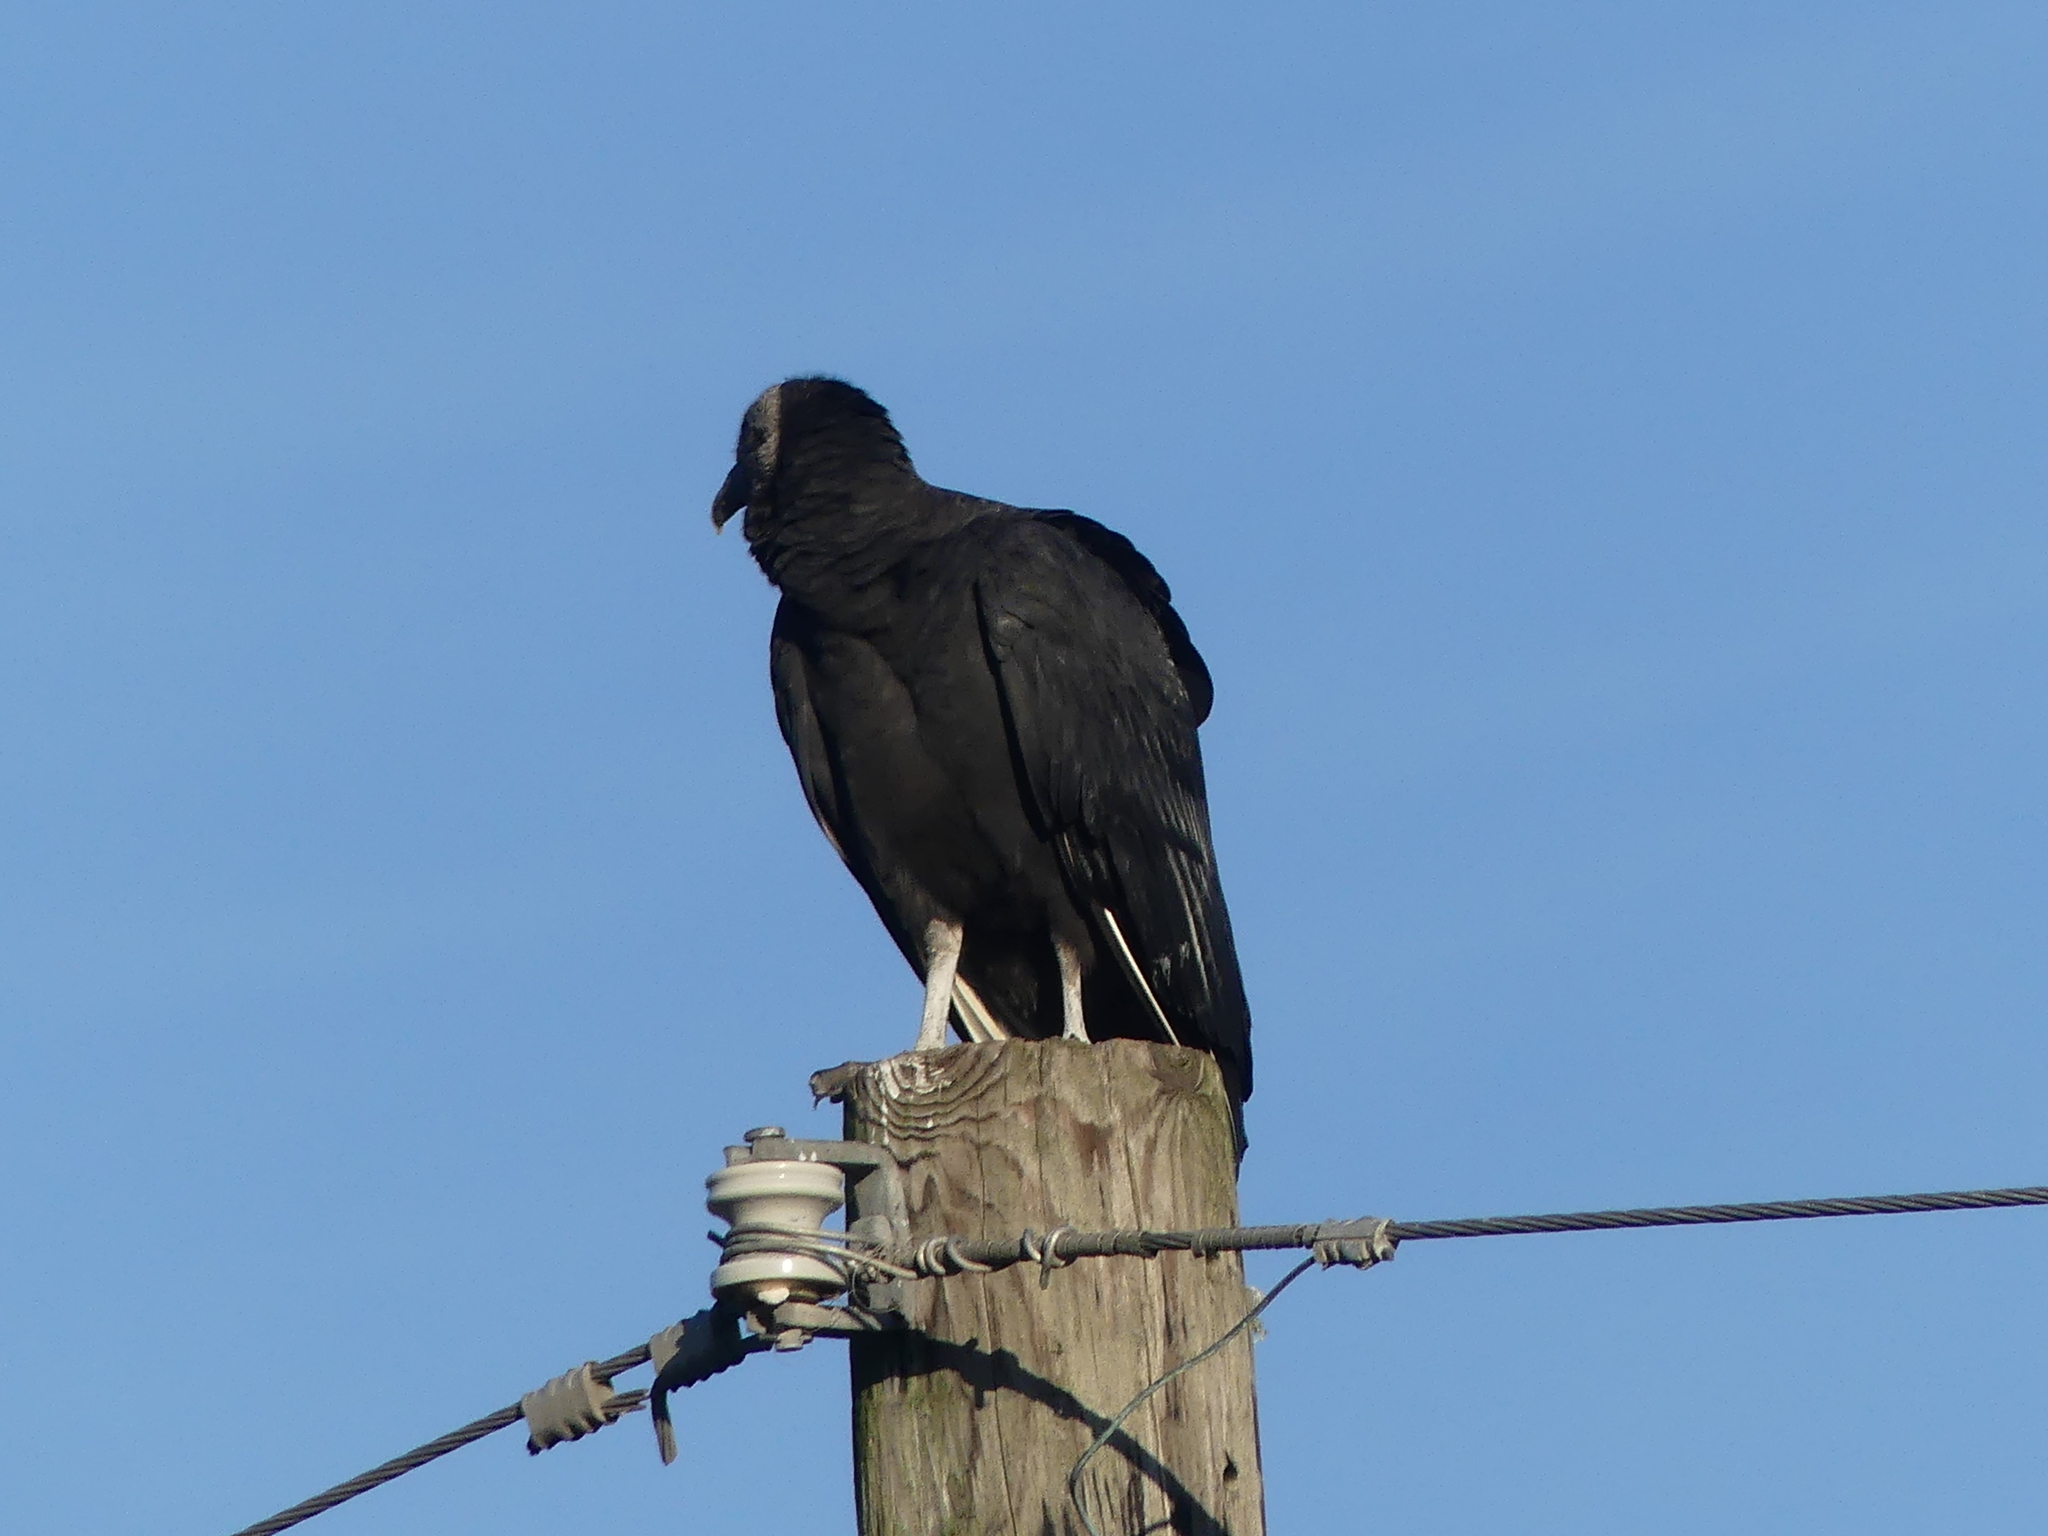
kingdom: Animalia
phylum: Chordata
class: Aves
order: Accipitriformes
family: Cathartidae
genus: Coragyps
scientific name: Coragyps atratus
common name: Black vulture
